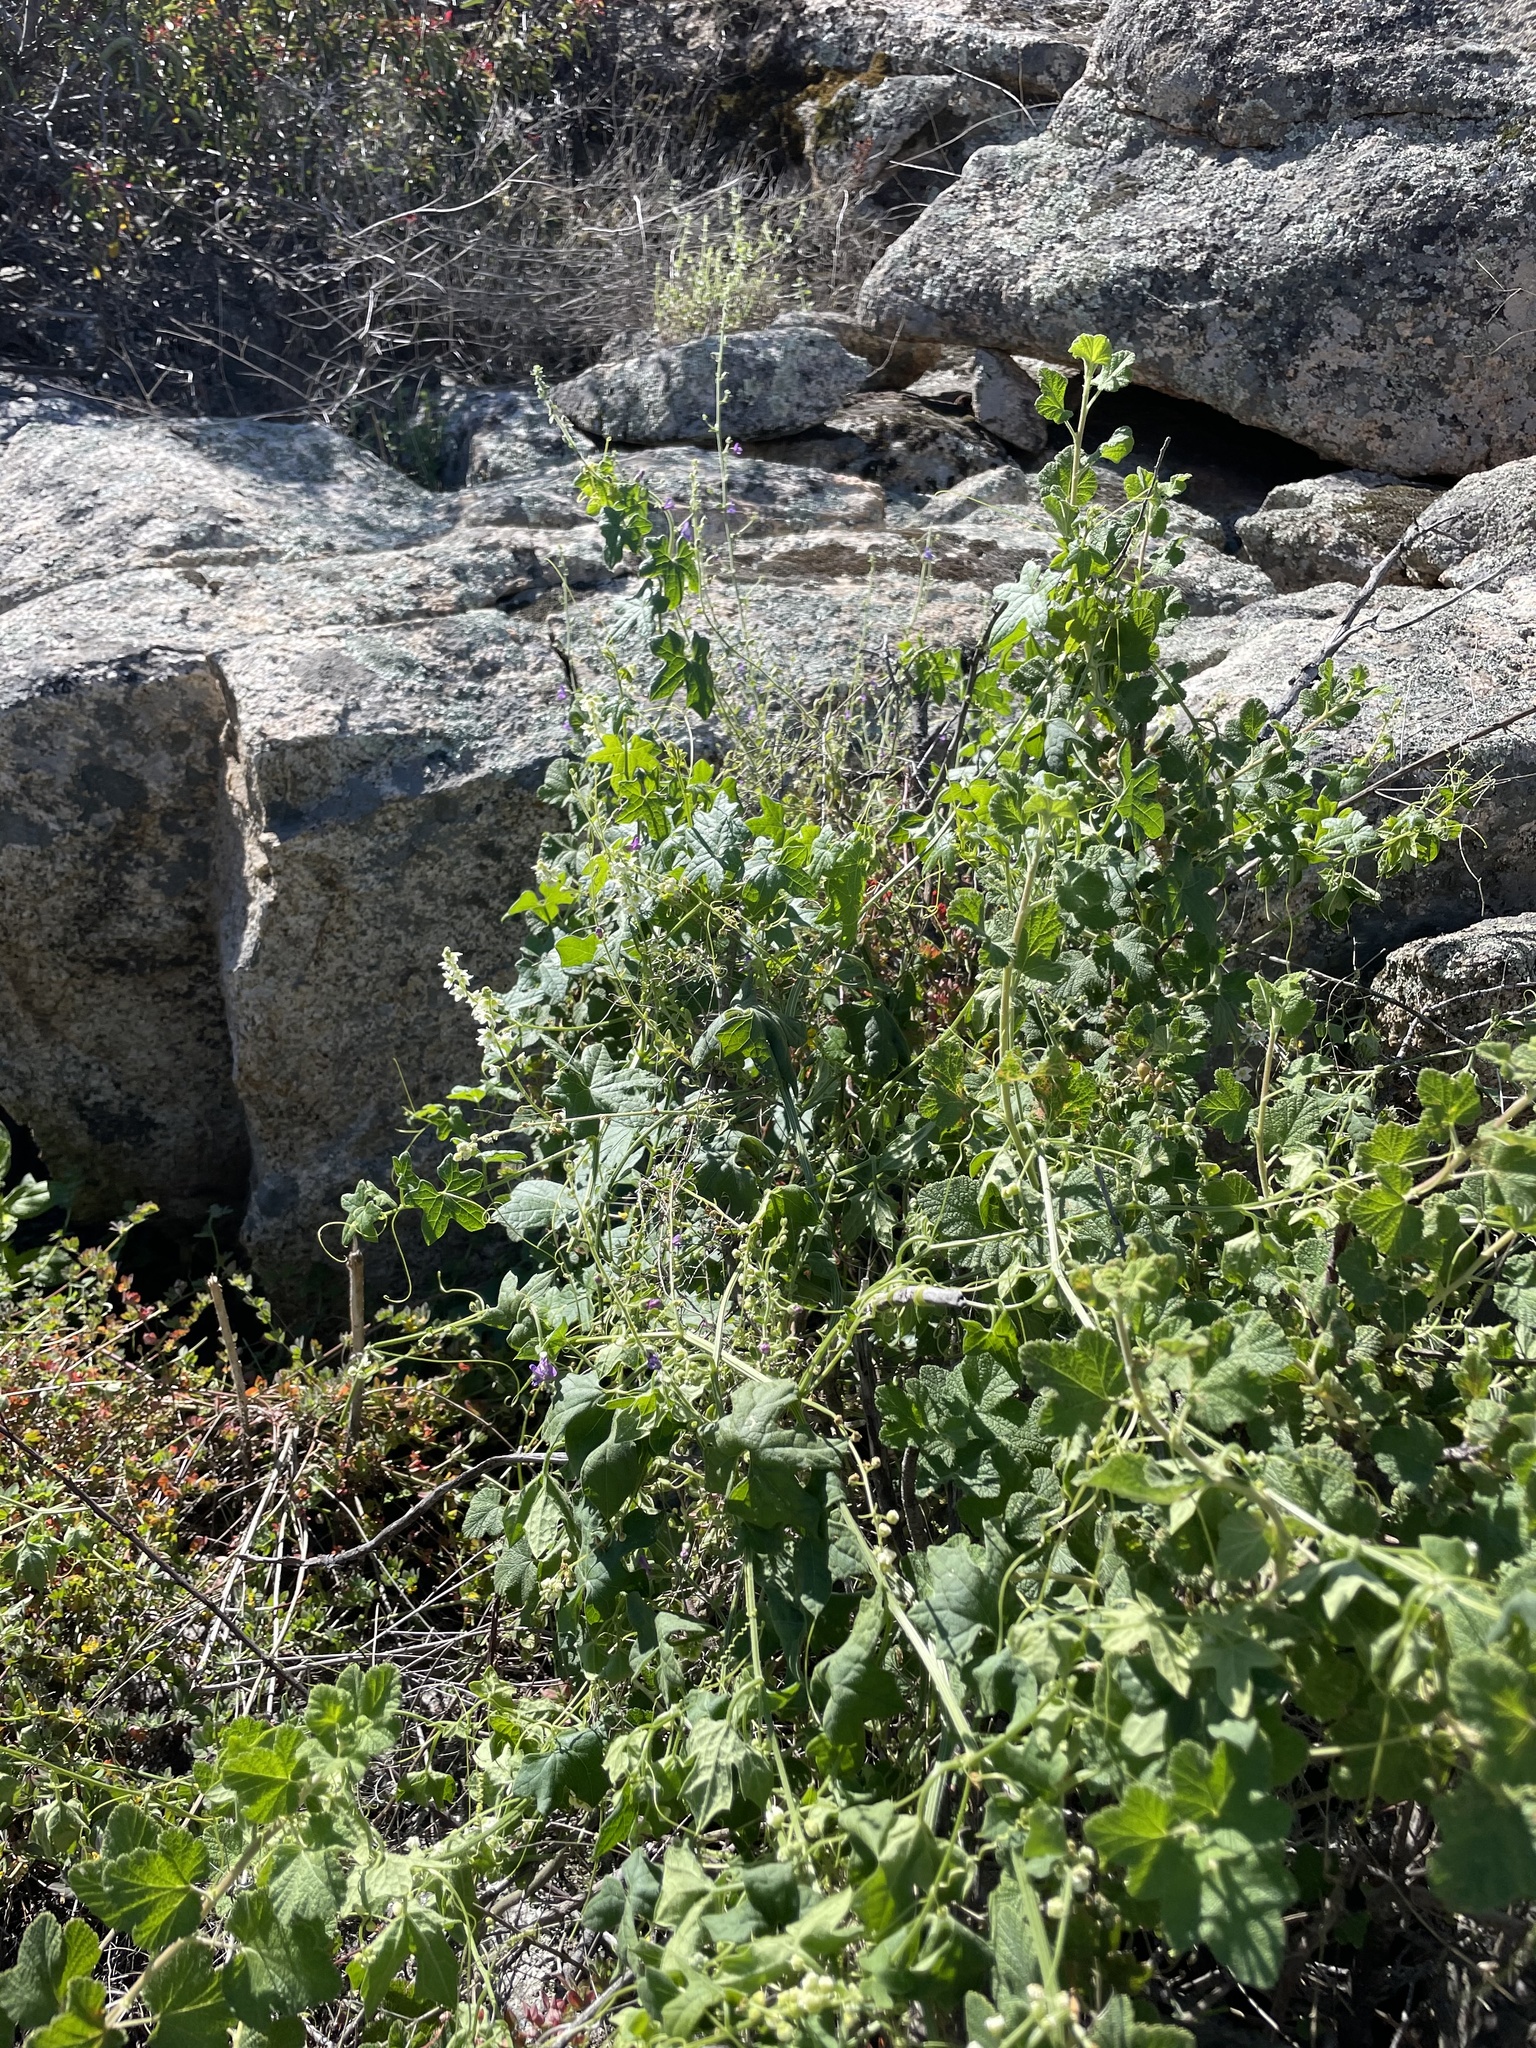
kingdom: Plantae
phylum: Tracheophyta
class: Magnoliopsida
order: Cucurbitales
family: Cucurbitaceae
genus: Marah
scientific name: Marah macrocarpa
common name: Cucamonga manroot
